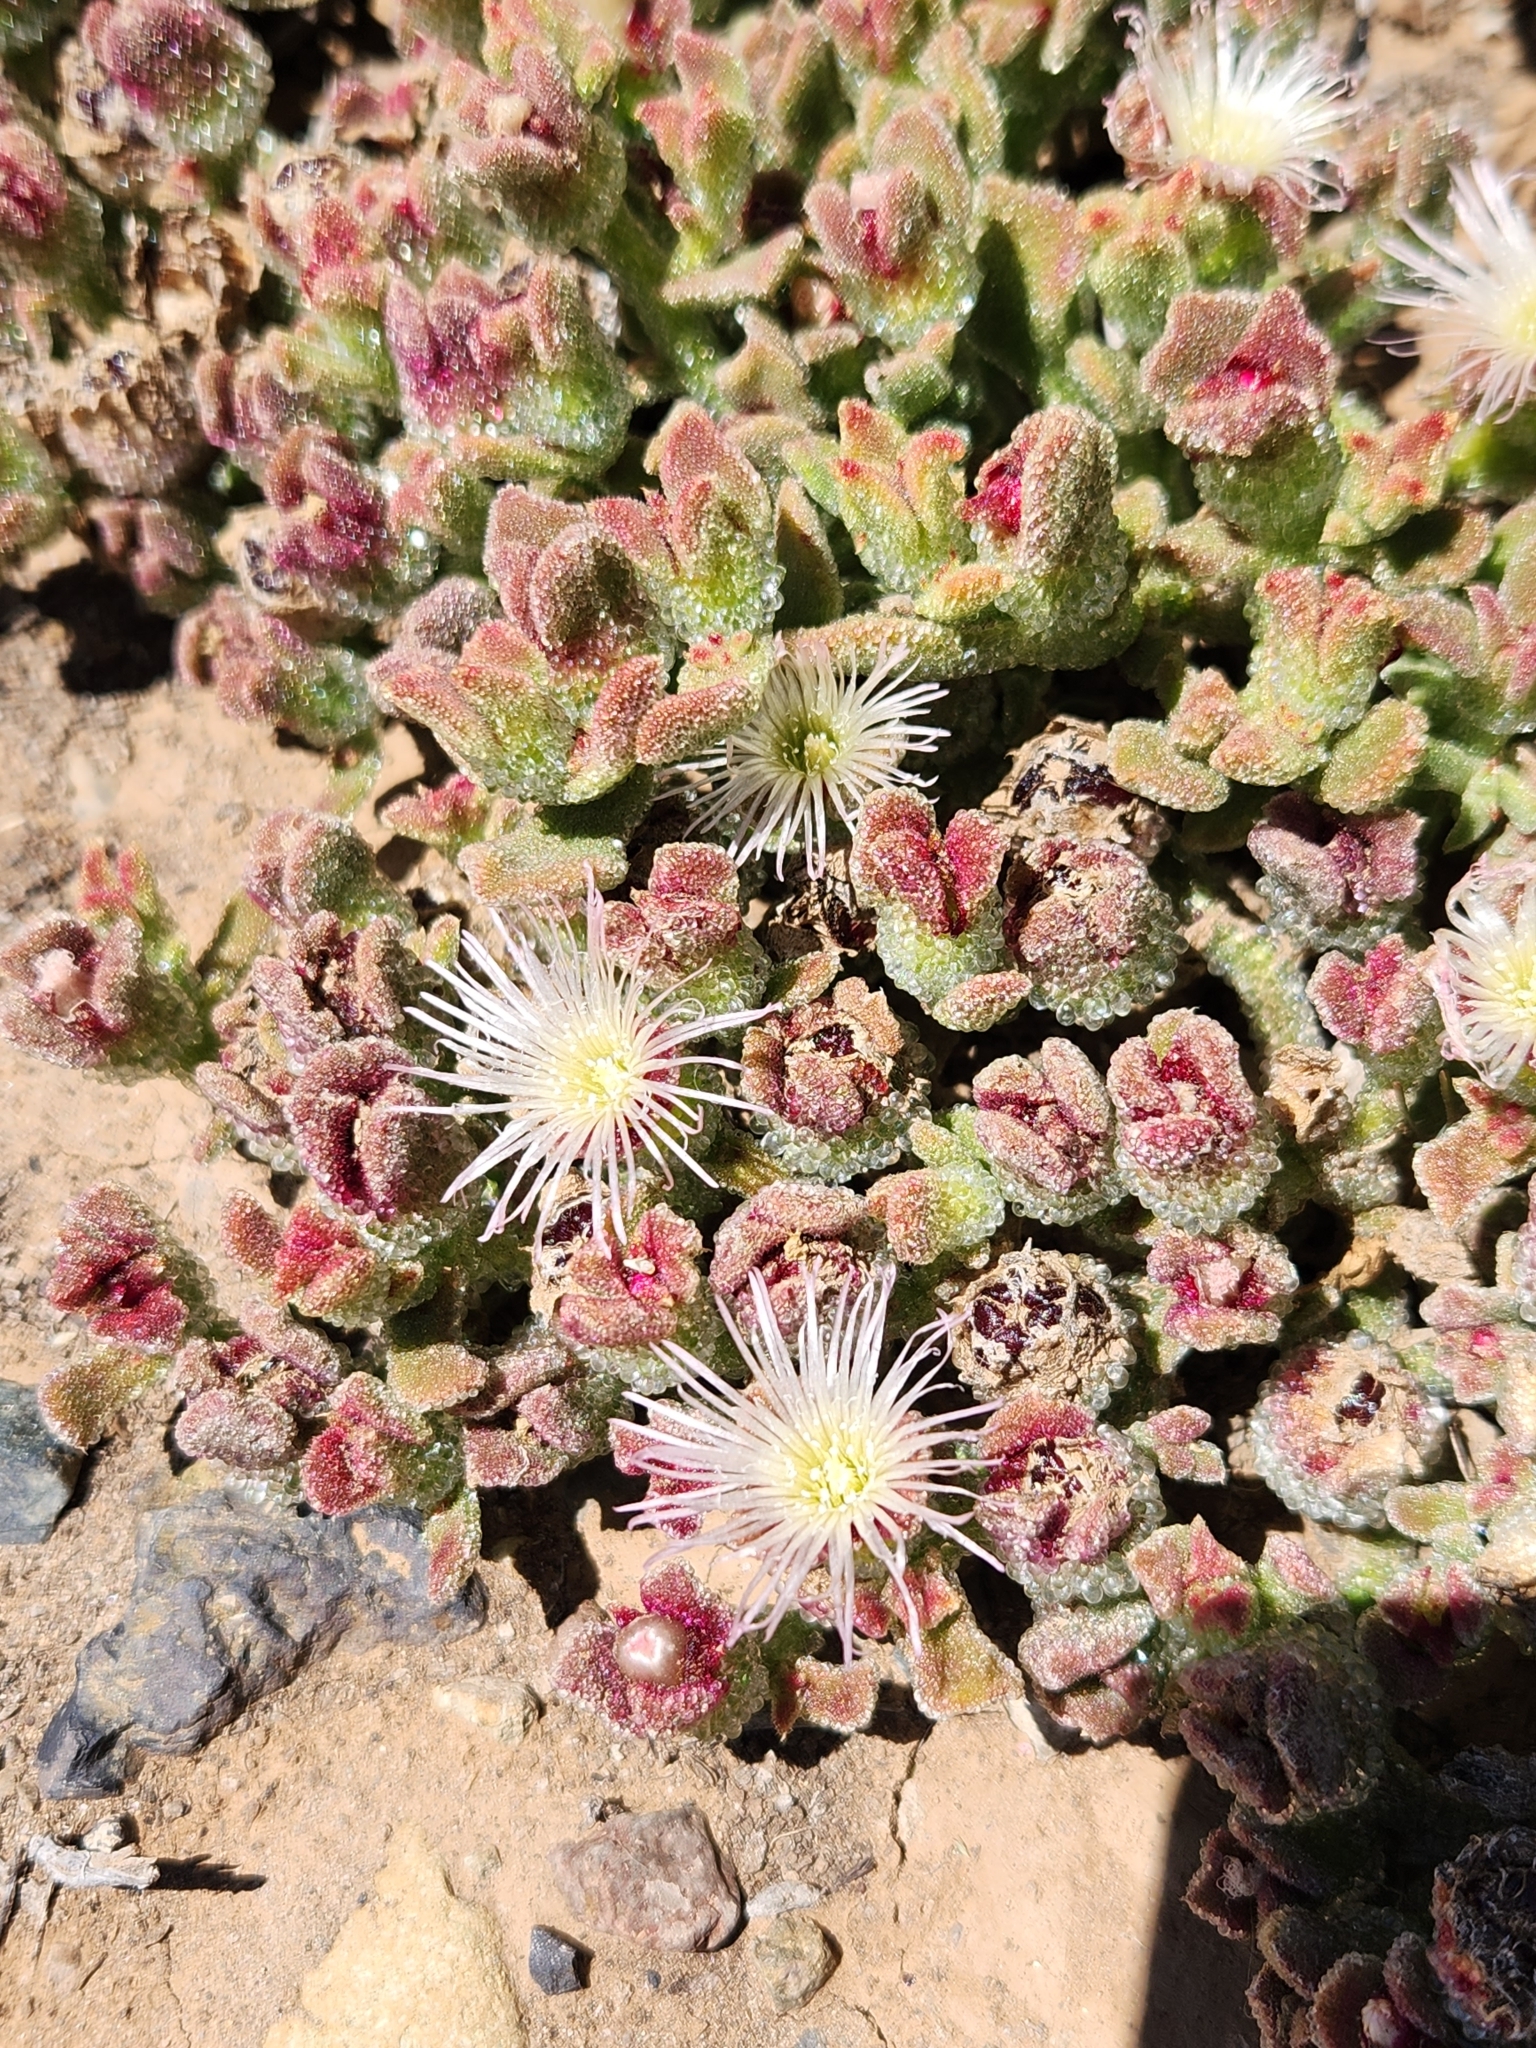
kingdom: Plantae
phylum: Tracheophyta
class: Magnoliopsida
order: Caryophyllales
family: Aizoaceae
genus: Mesembryanthemum
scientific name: Mesembryanthemum crystallinum
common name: Common iceplant
